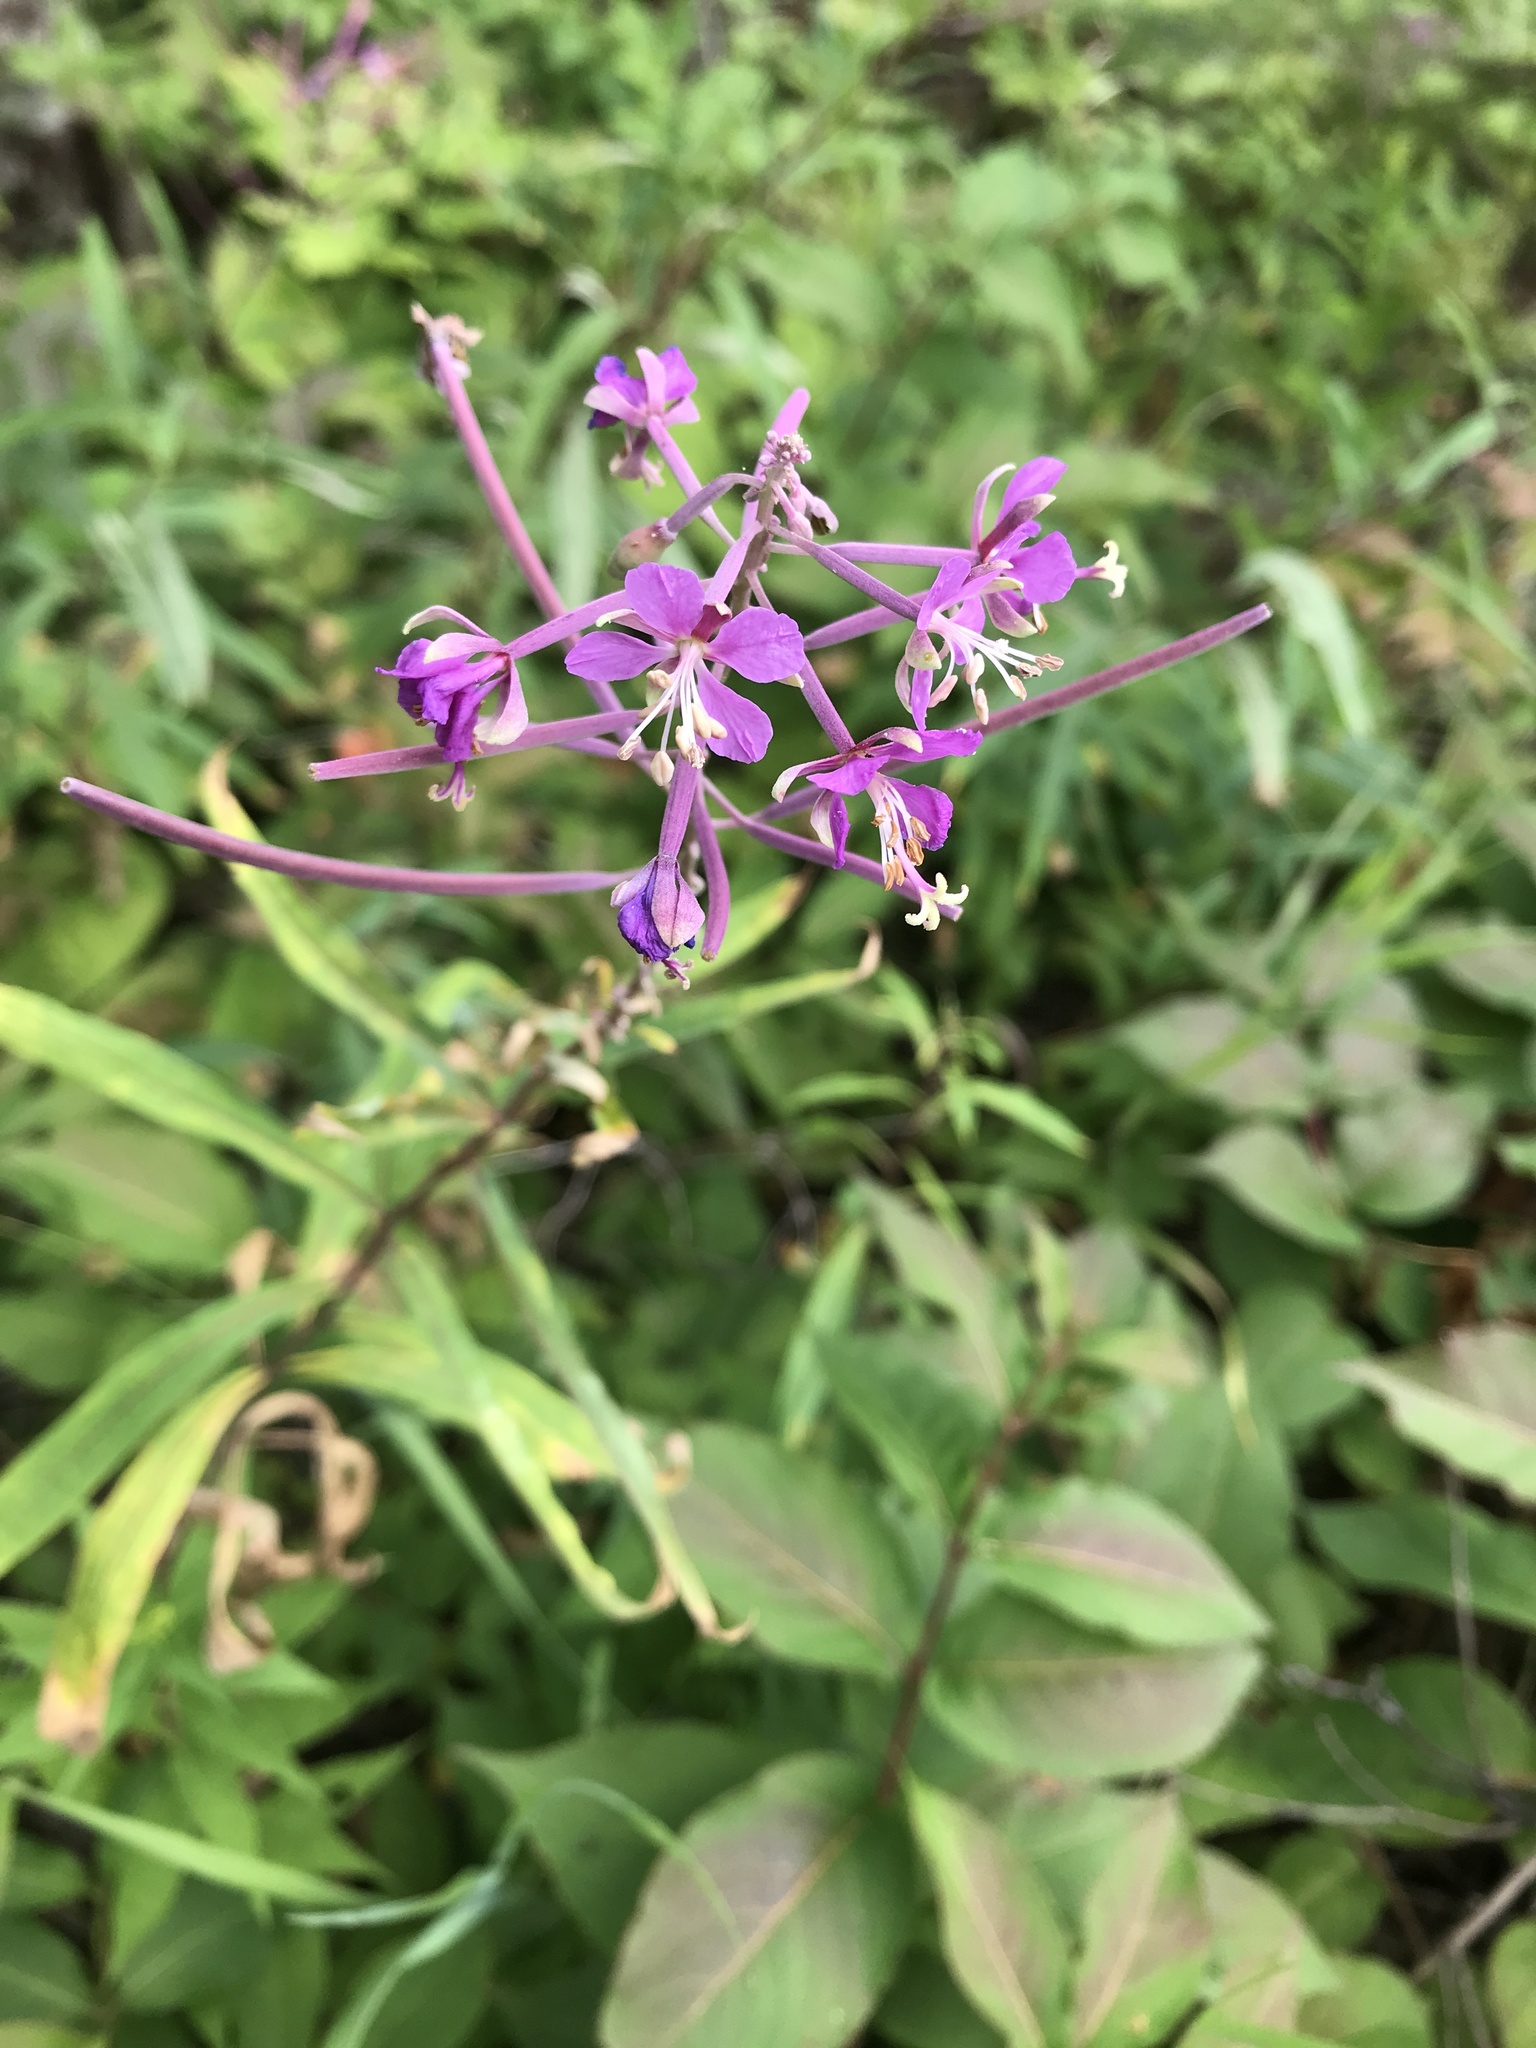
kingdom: Plantae
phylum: Tracheophyta
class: Magnoliopsida
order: Myrtales
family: Onagraceae
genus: Chamaenerion
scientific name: Chamaenerion angustifolium
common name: Fireweed
